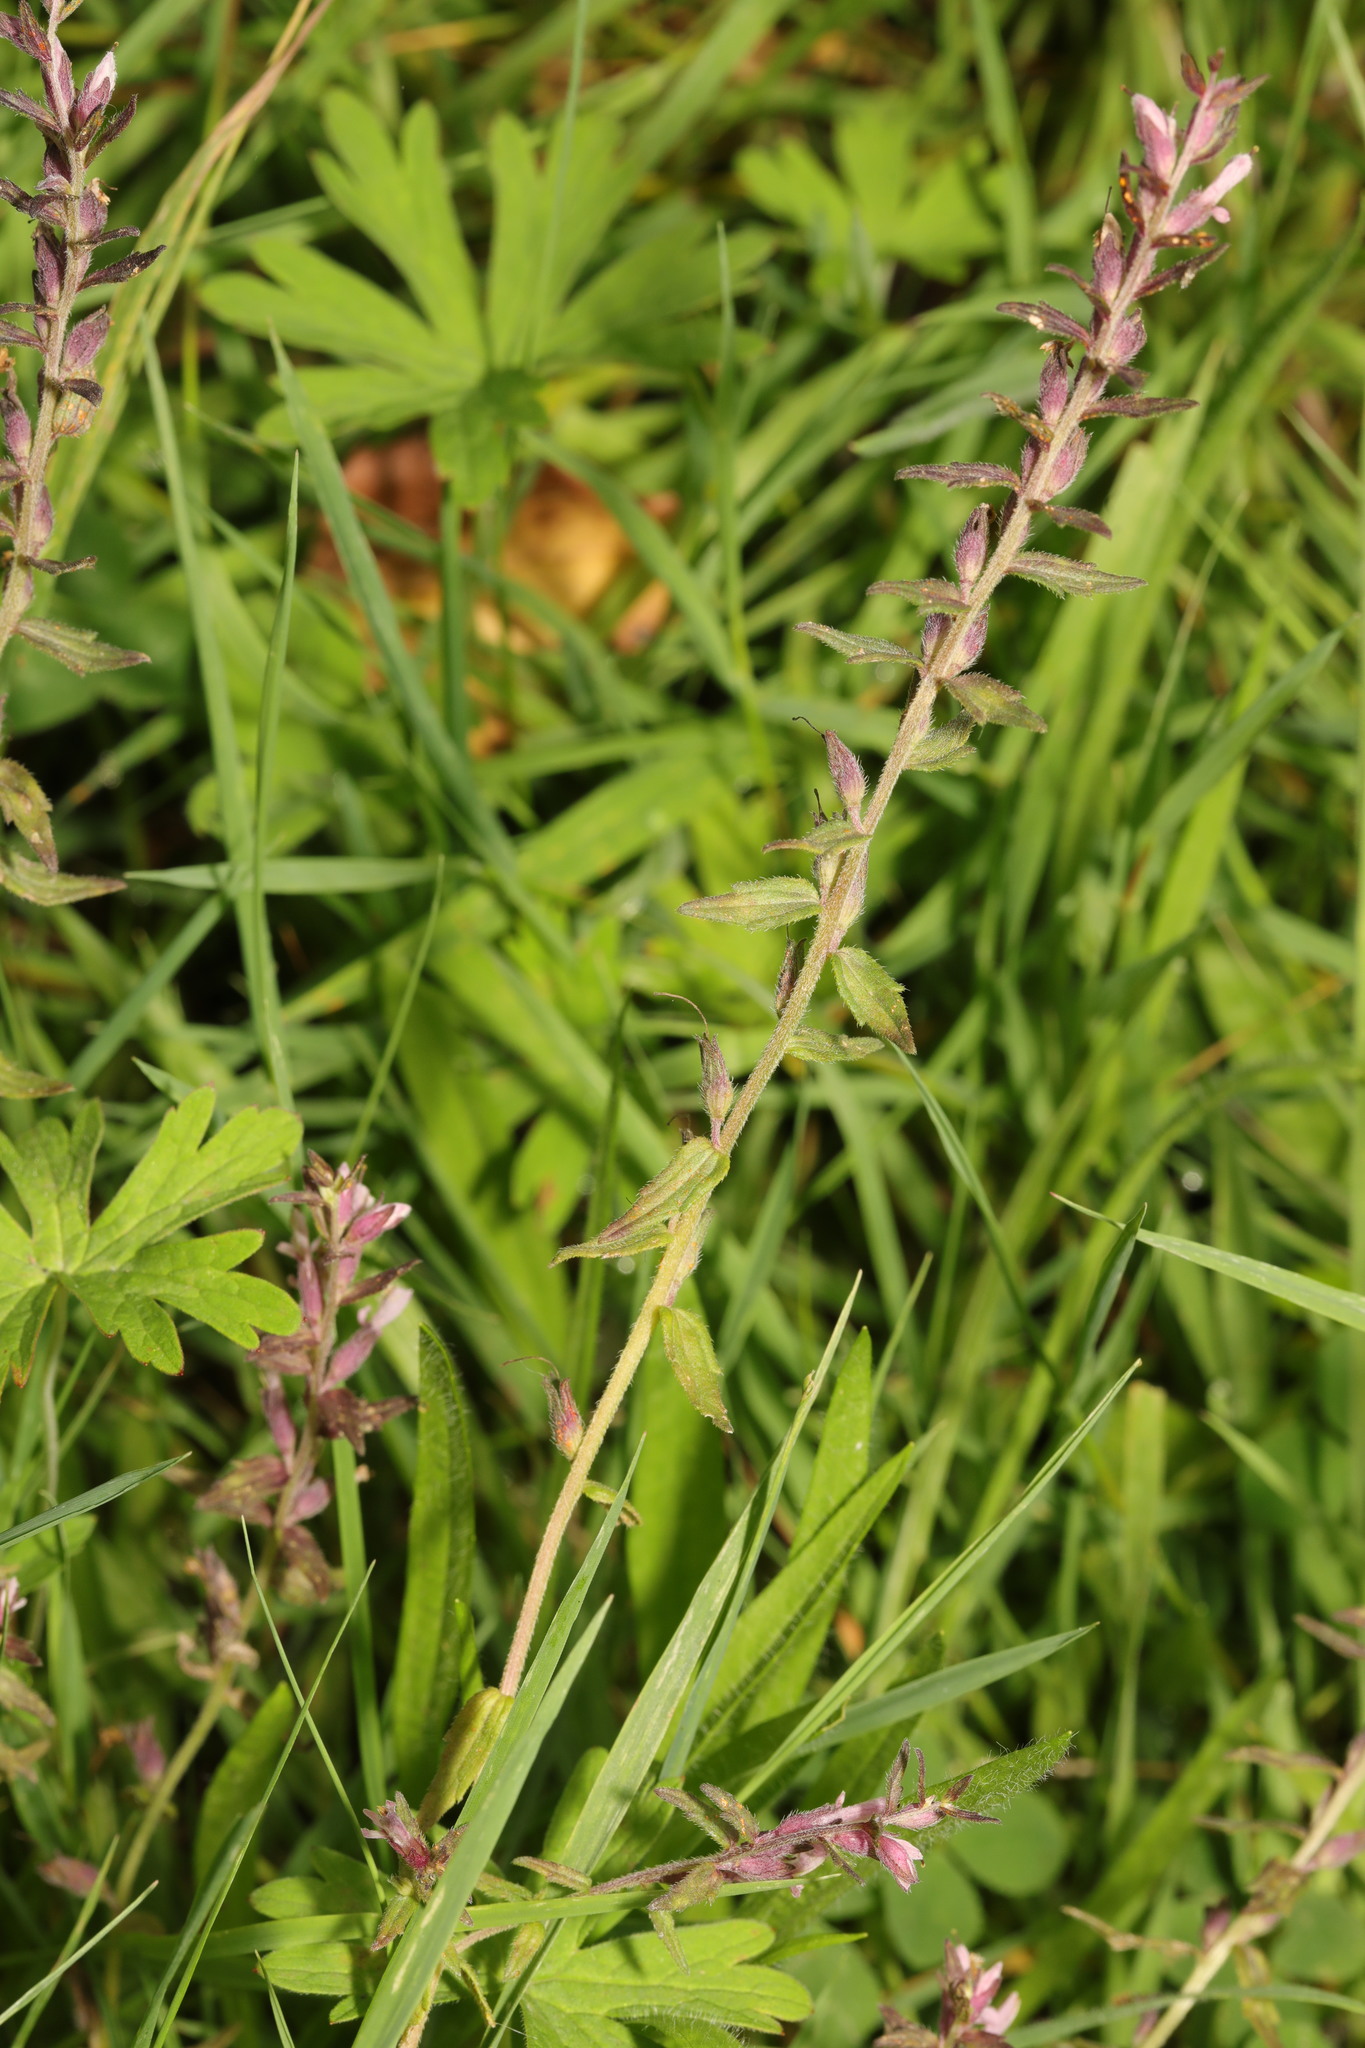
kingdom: Plantae
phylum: Tracheophyta
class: Magnoliopsida
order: Lamiales
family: Orobanchaceae
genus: Odontites
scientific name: Odontites vulgaris
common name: Broomrape
